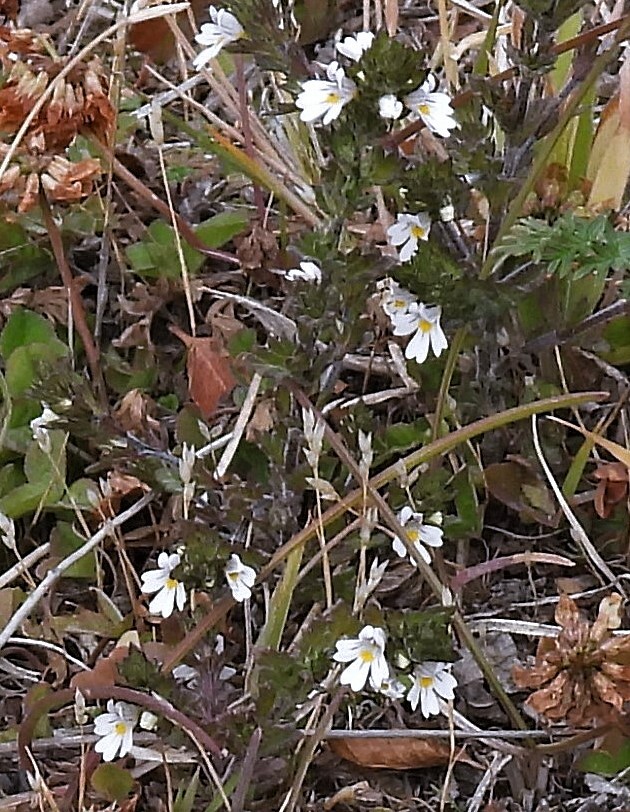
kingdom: Plantae
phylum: Tracheophyta
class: Magnoliopsida
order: Lamiales
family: Orobanchaceae
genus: Euphrasia
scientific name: Euphrasia officinalis
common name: Eyebright
